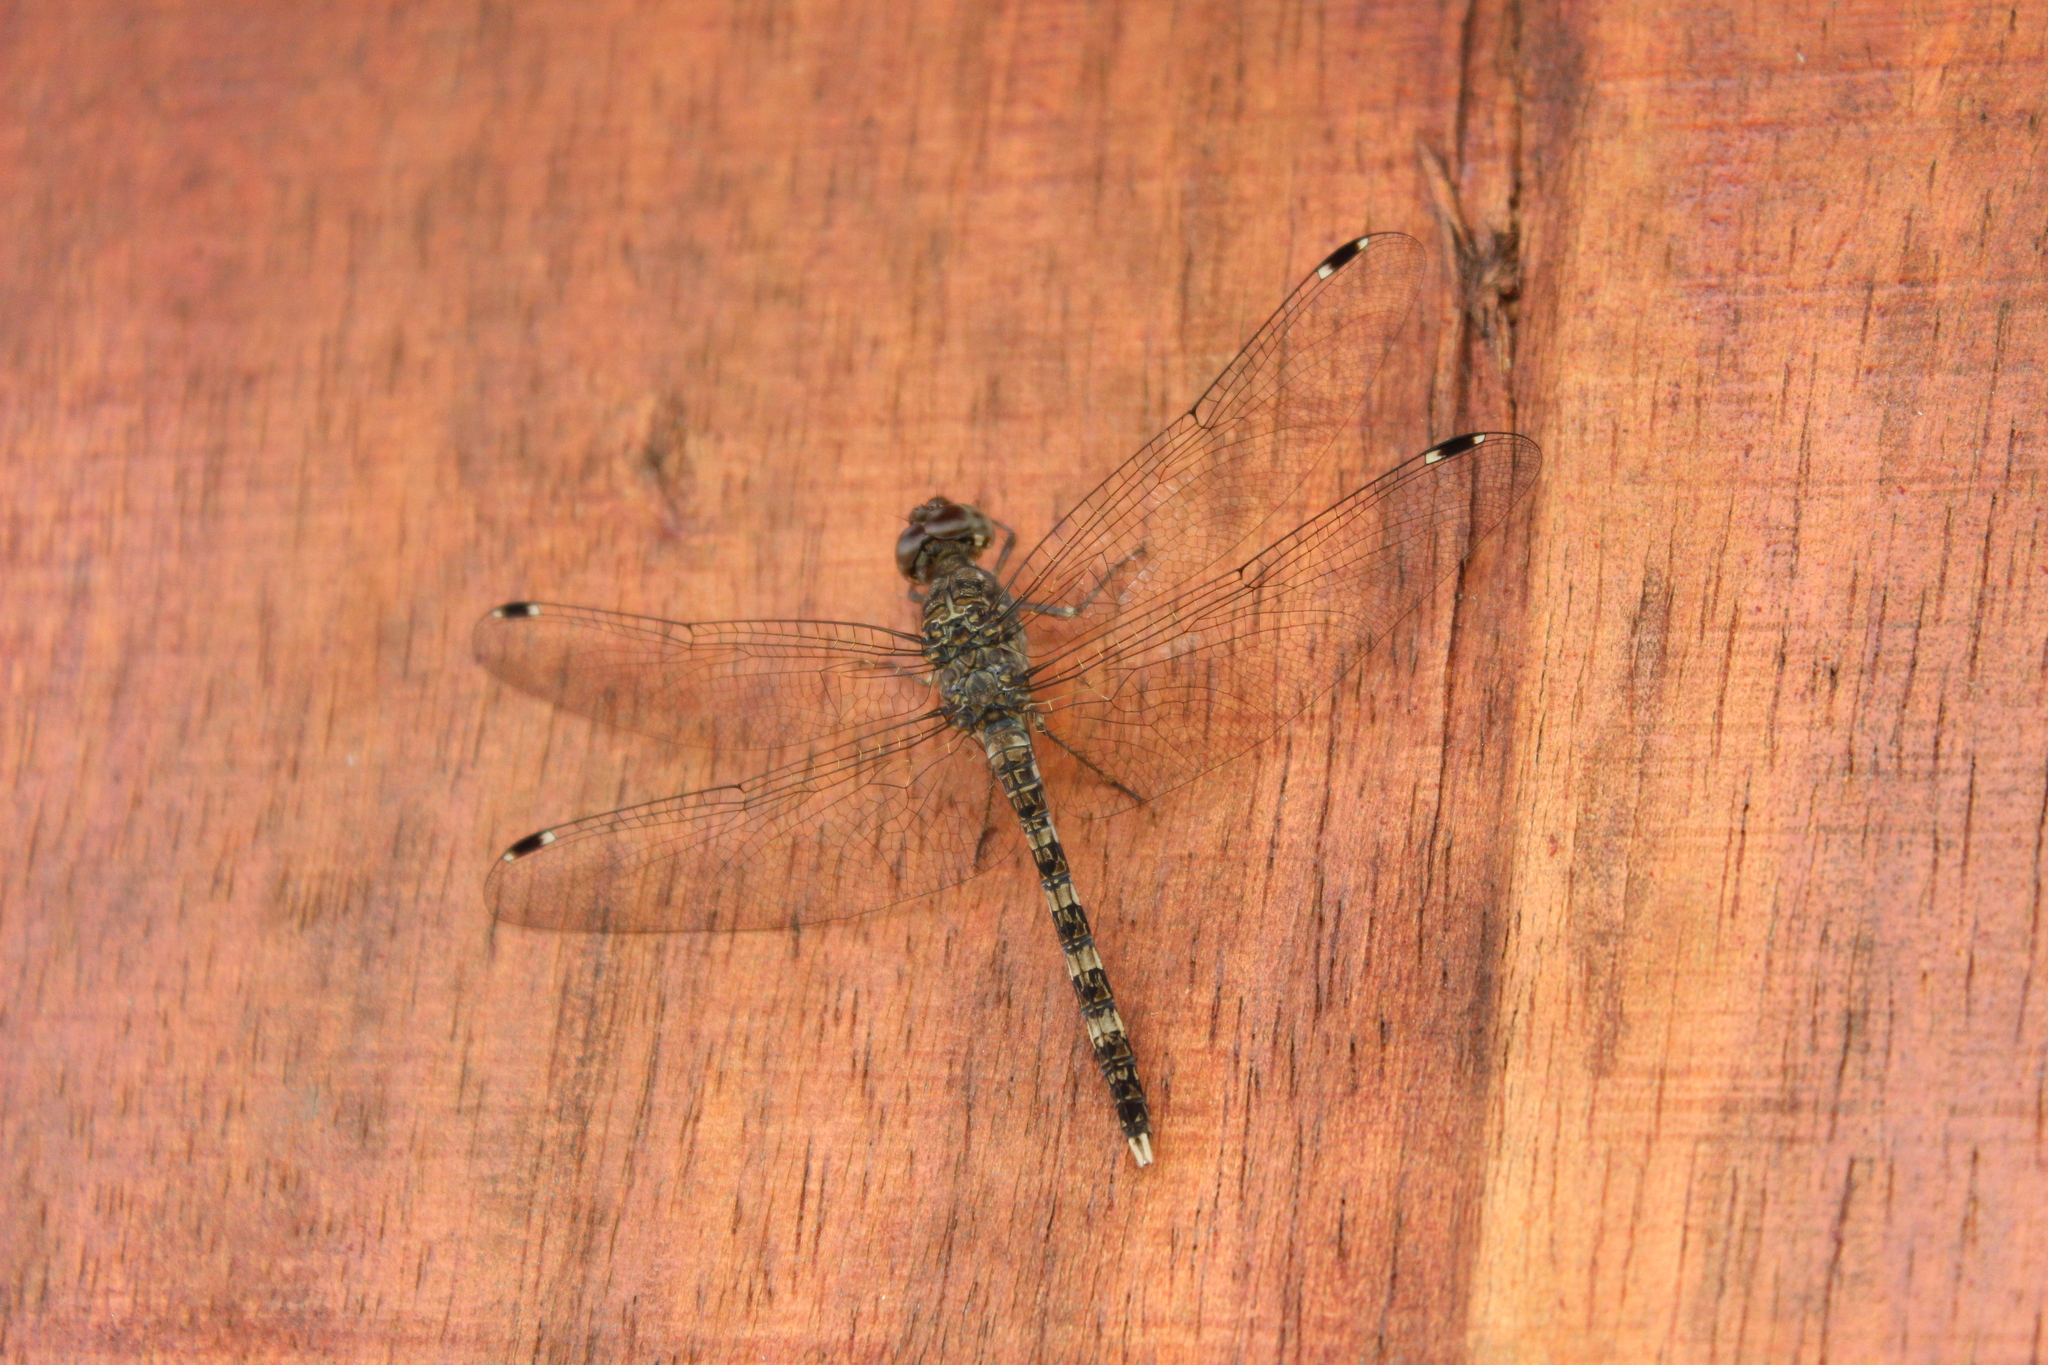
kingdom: Animalia
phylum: Arthropoda
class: Insecta
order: Odonata
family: Libellulidae
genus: Bradinopyga
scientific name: Bradinopyga geminata
